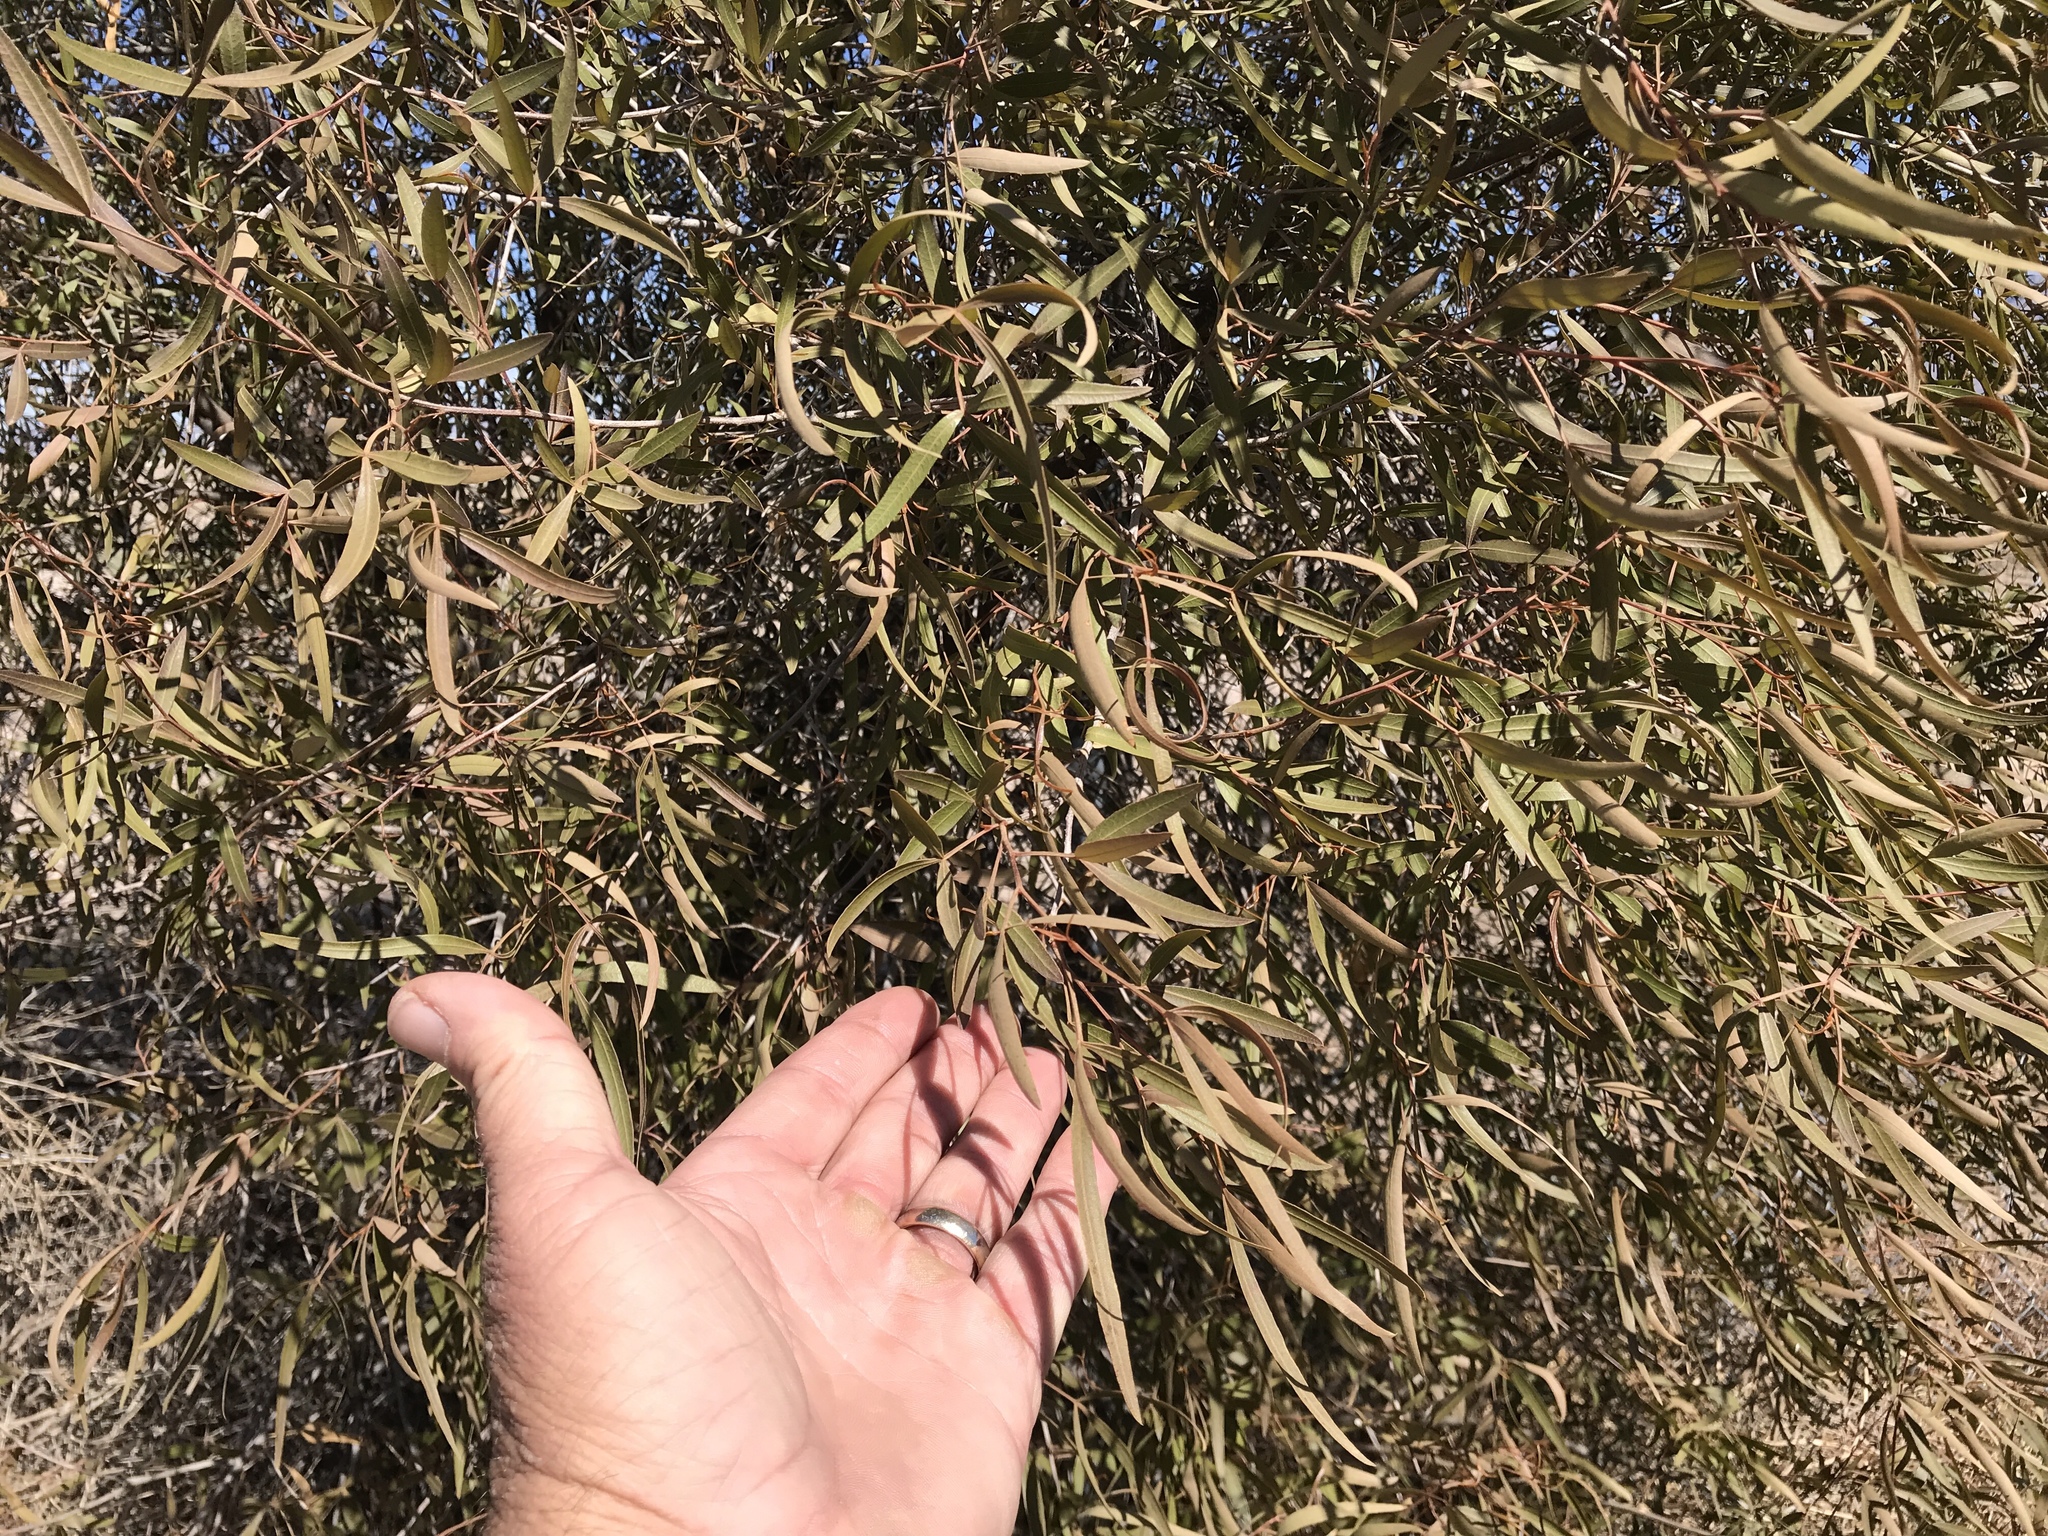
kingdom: Plantae
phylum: Tracheophyta
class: Magnoliopsida
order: Sapindales
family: Anacardiaceae
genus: Searsia
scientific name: Searsia lancea
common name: Cashew
